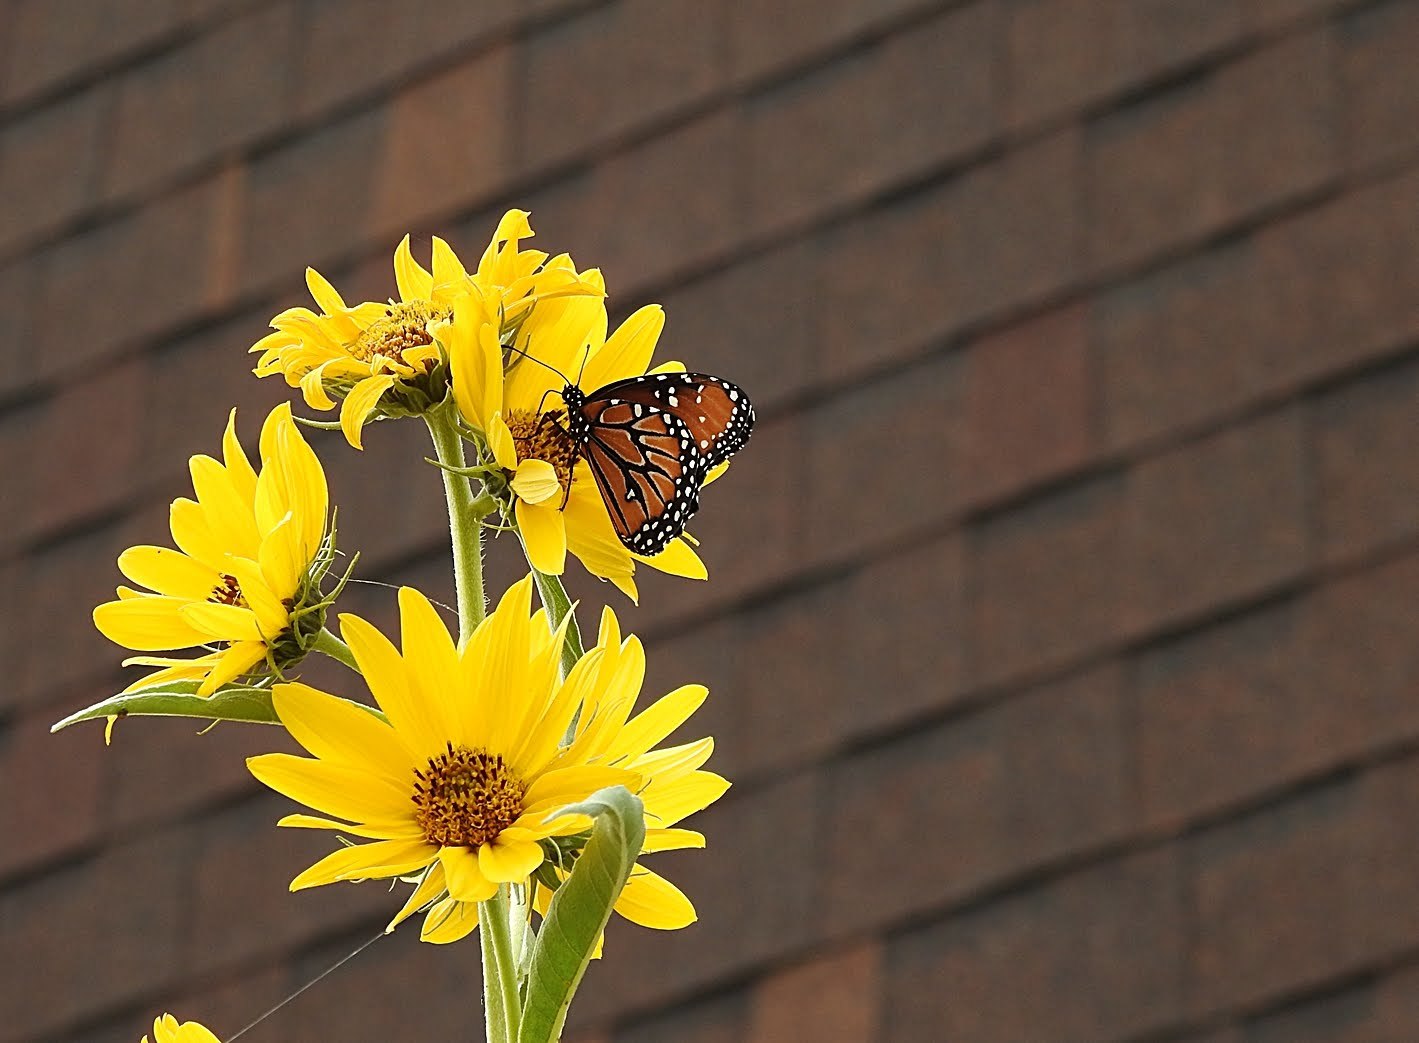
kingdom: Animalia
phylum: Arthropoda
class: Insecta
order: Lepidoptera
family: Nymphalidae
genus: Danaus
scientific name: Danaus gilippus
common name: Queen
